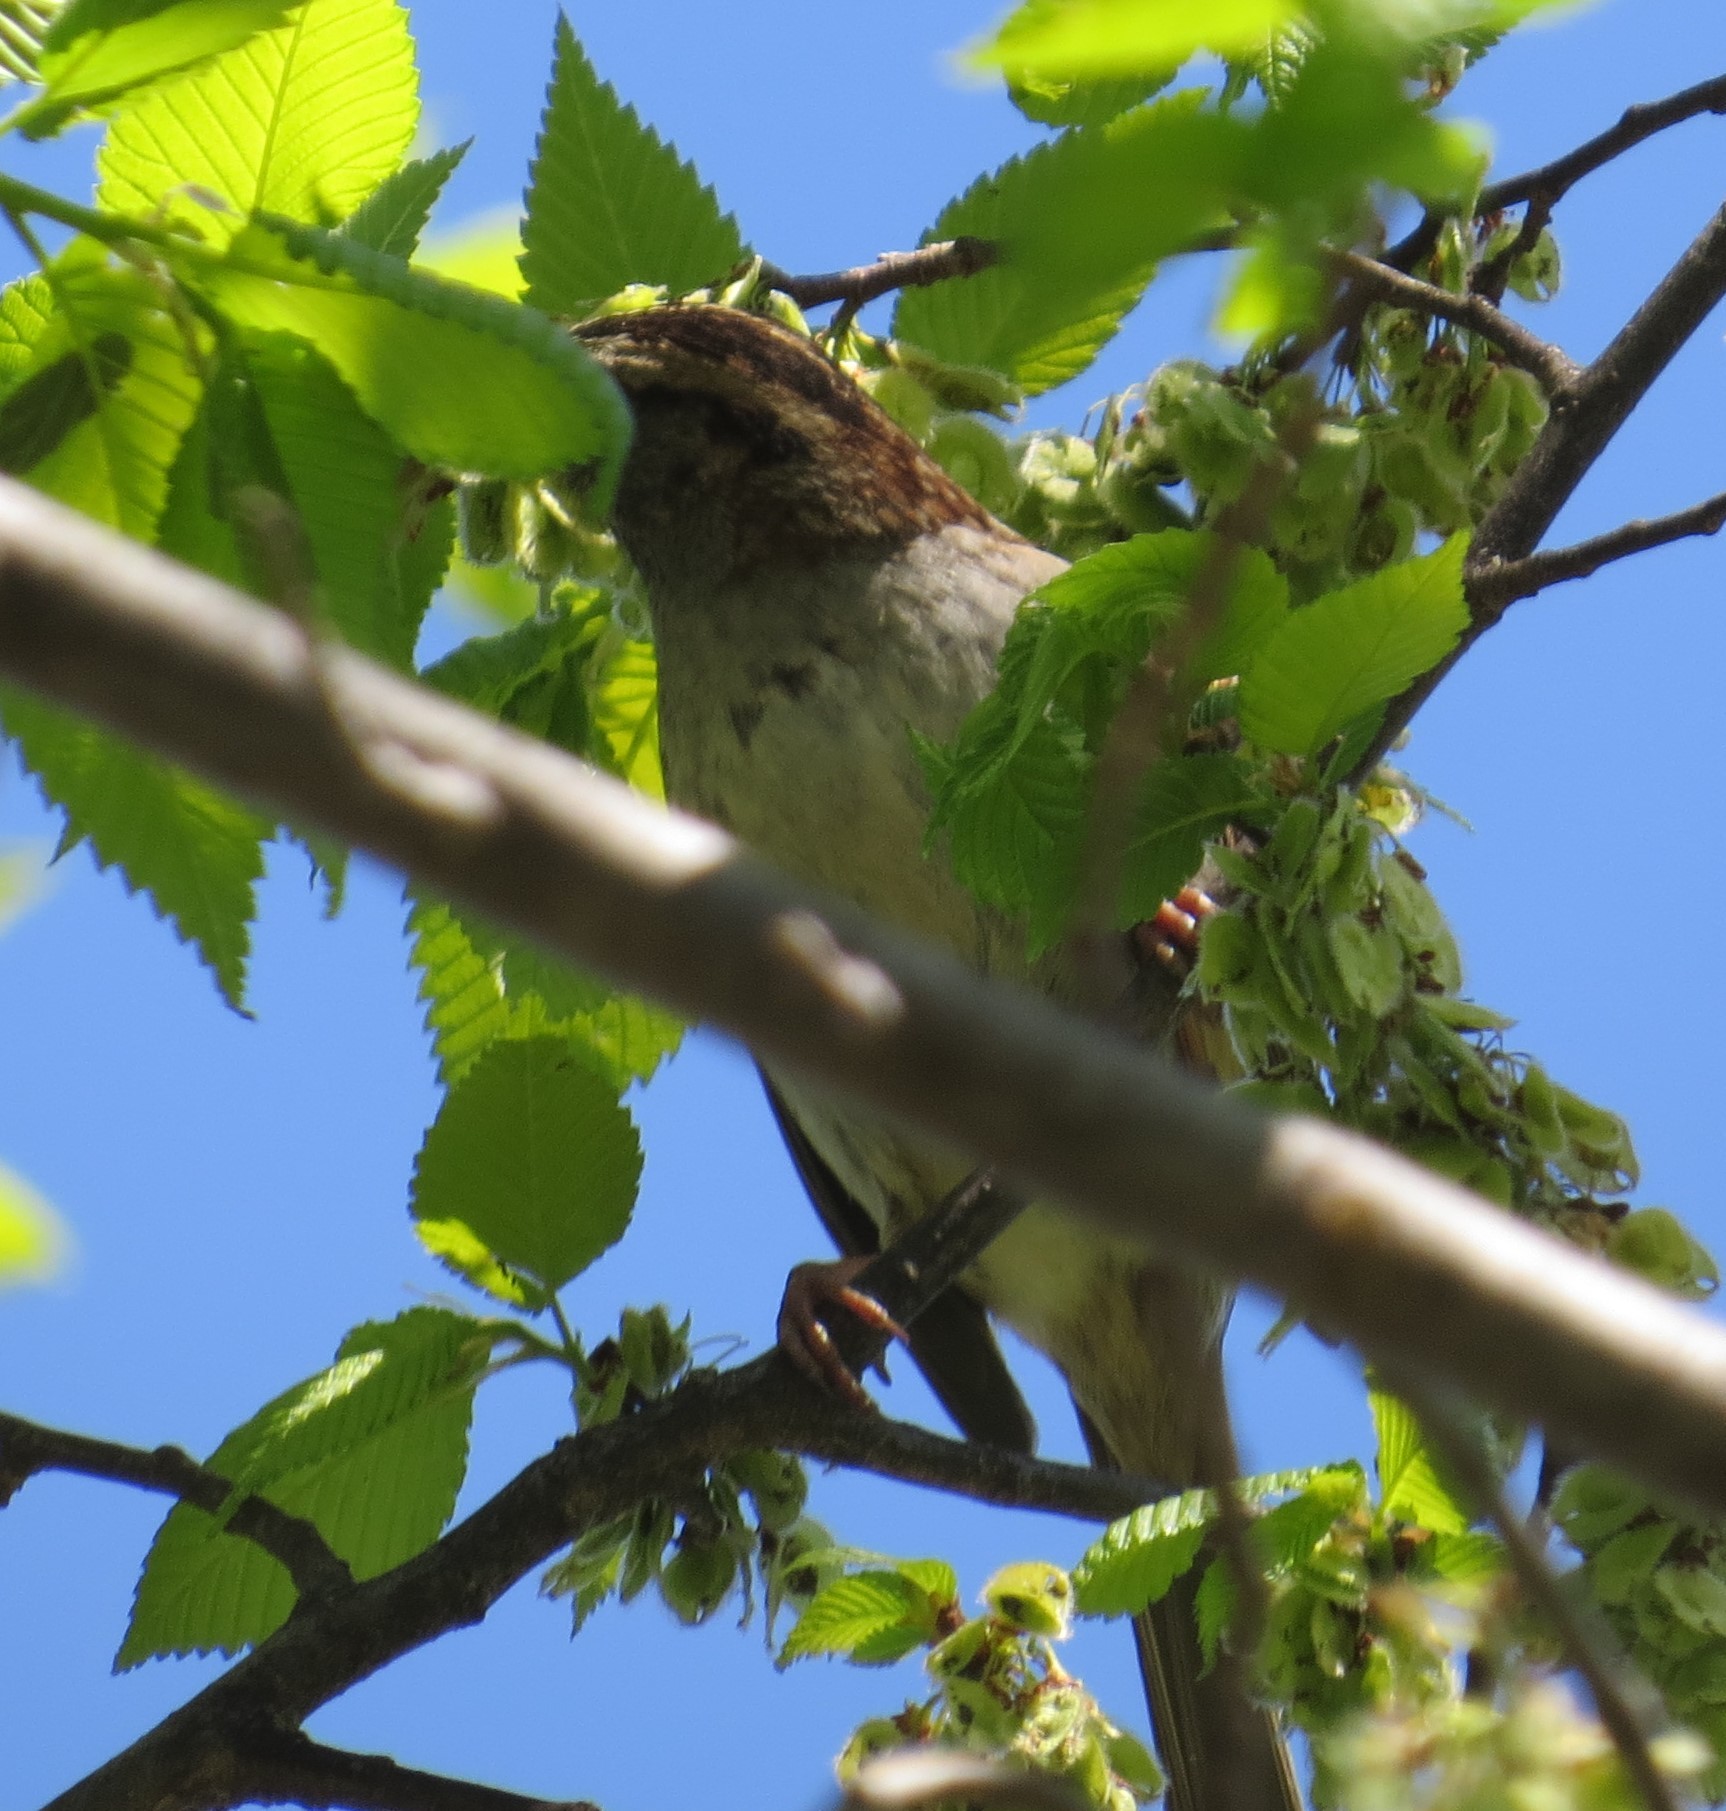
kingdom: Animalia
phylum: Chordata
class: Aves
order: Passeriformes
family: Passerellidae
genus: Zonotrichia
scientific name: Zonotrichia albicollis
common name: White-throated sparrow
